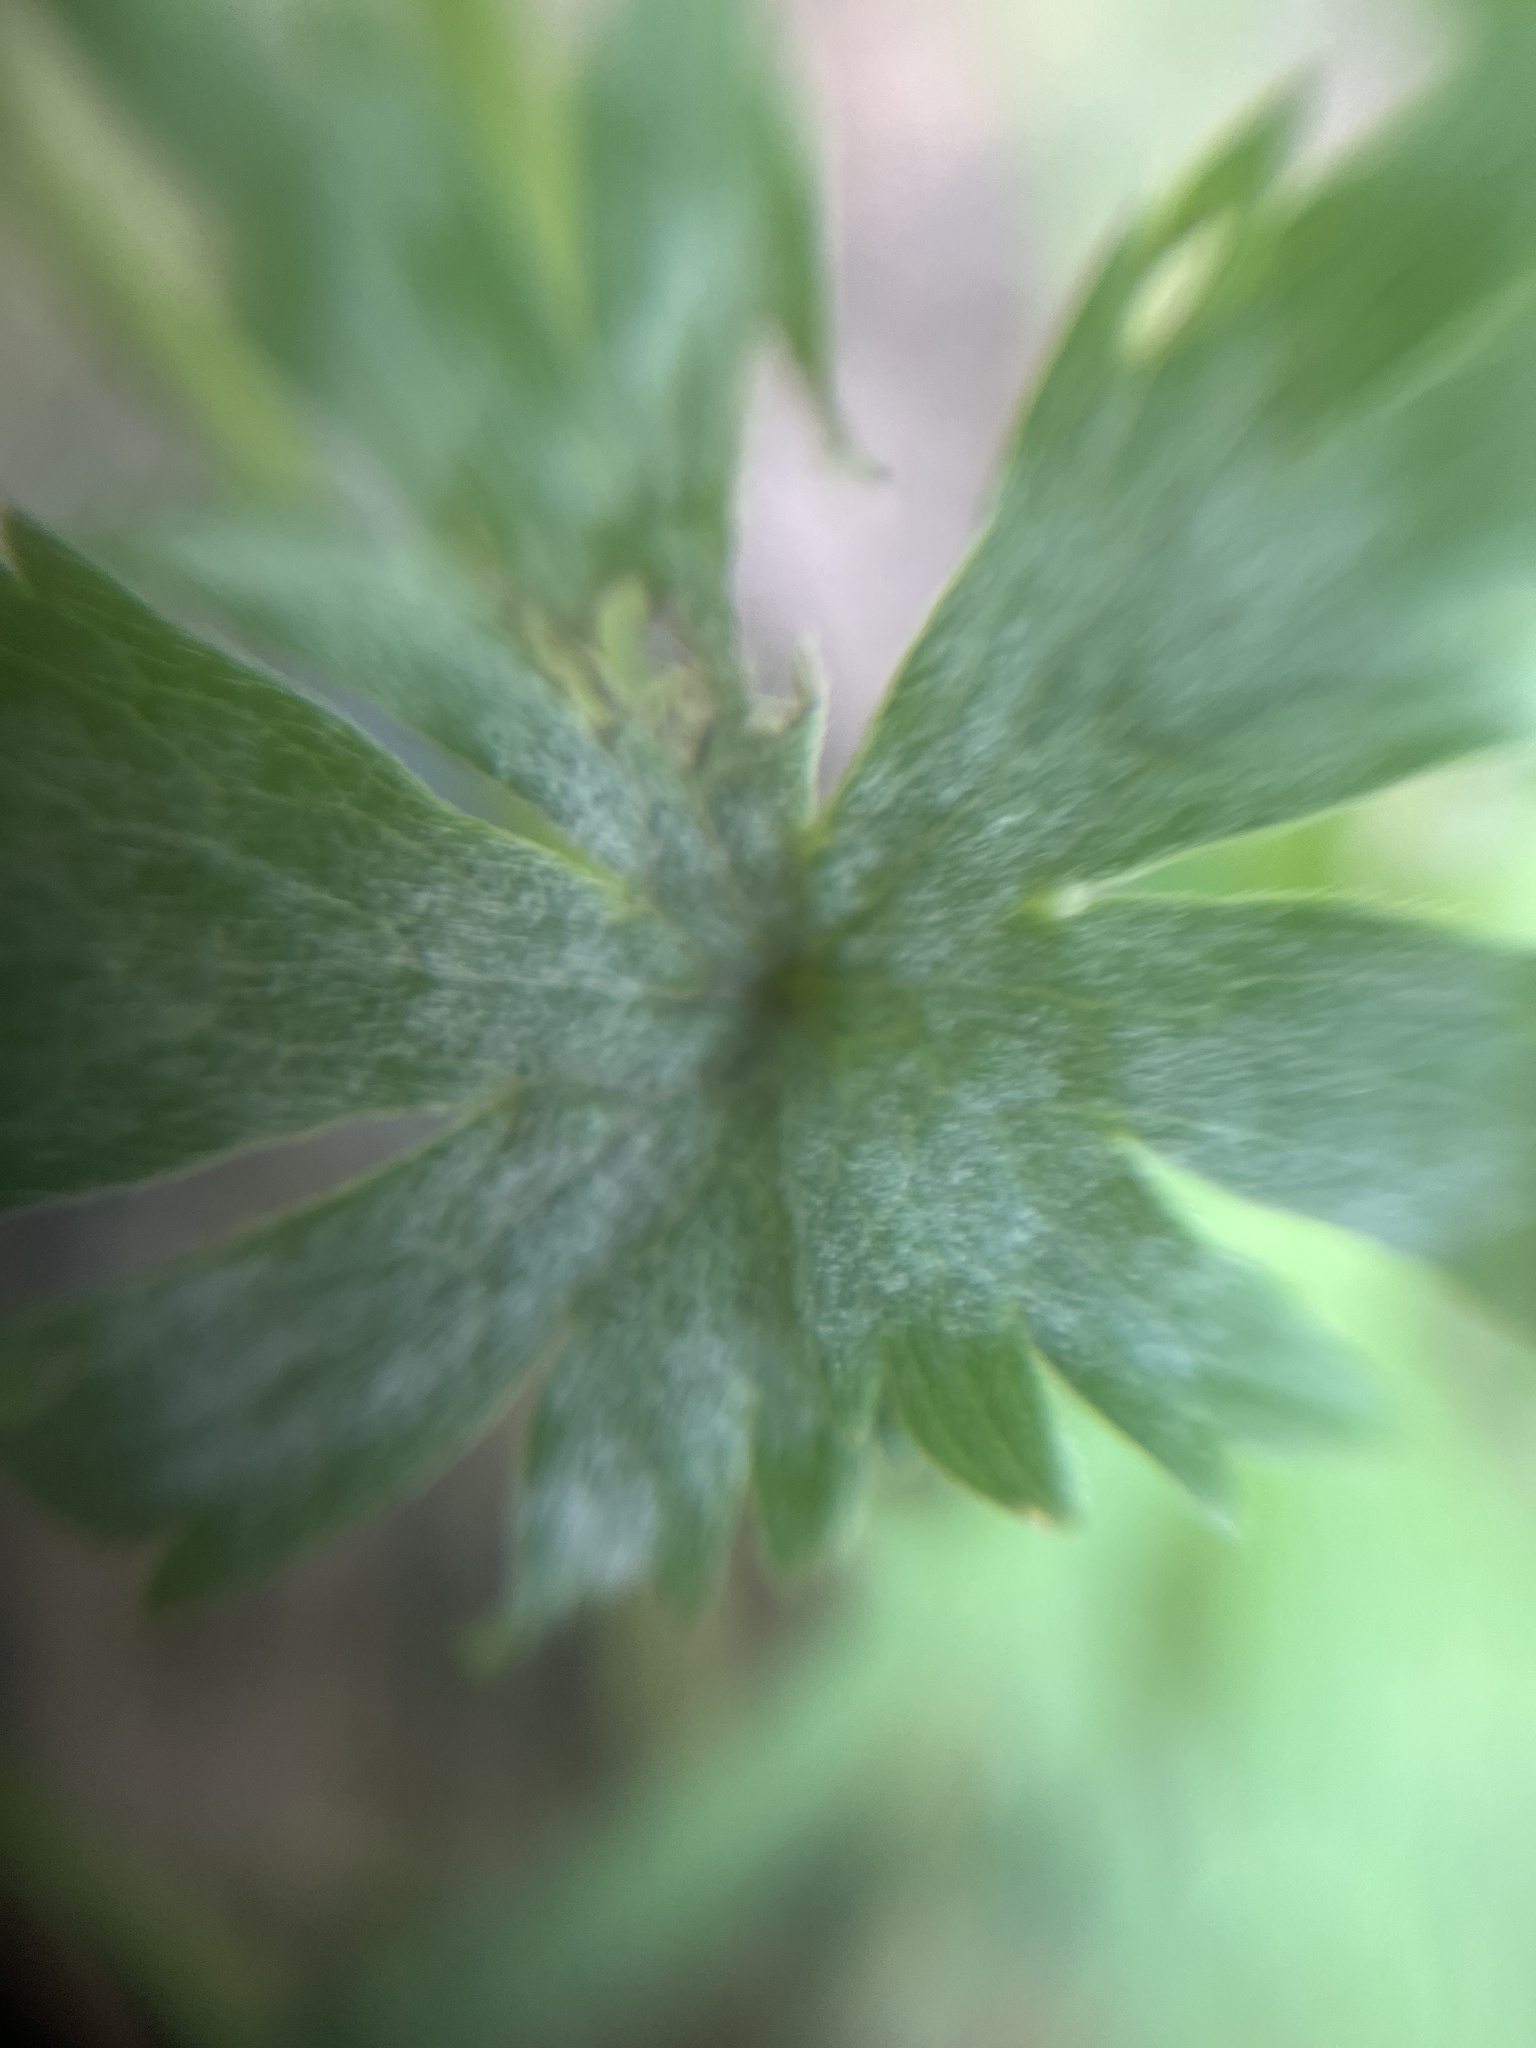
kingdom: Fungi
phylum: Ascomycota
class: Leotiomycetes
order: Helotiales
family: Erysiphaceae
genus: Erysiphe
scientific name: Erysiphe aquilegiae
